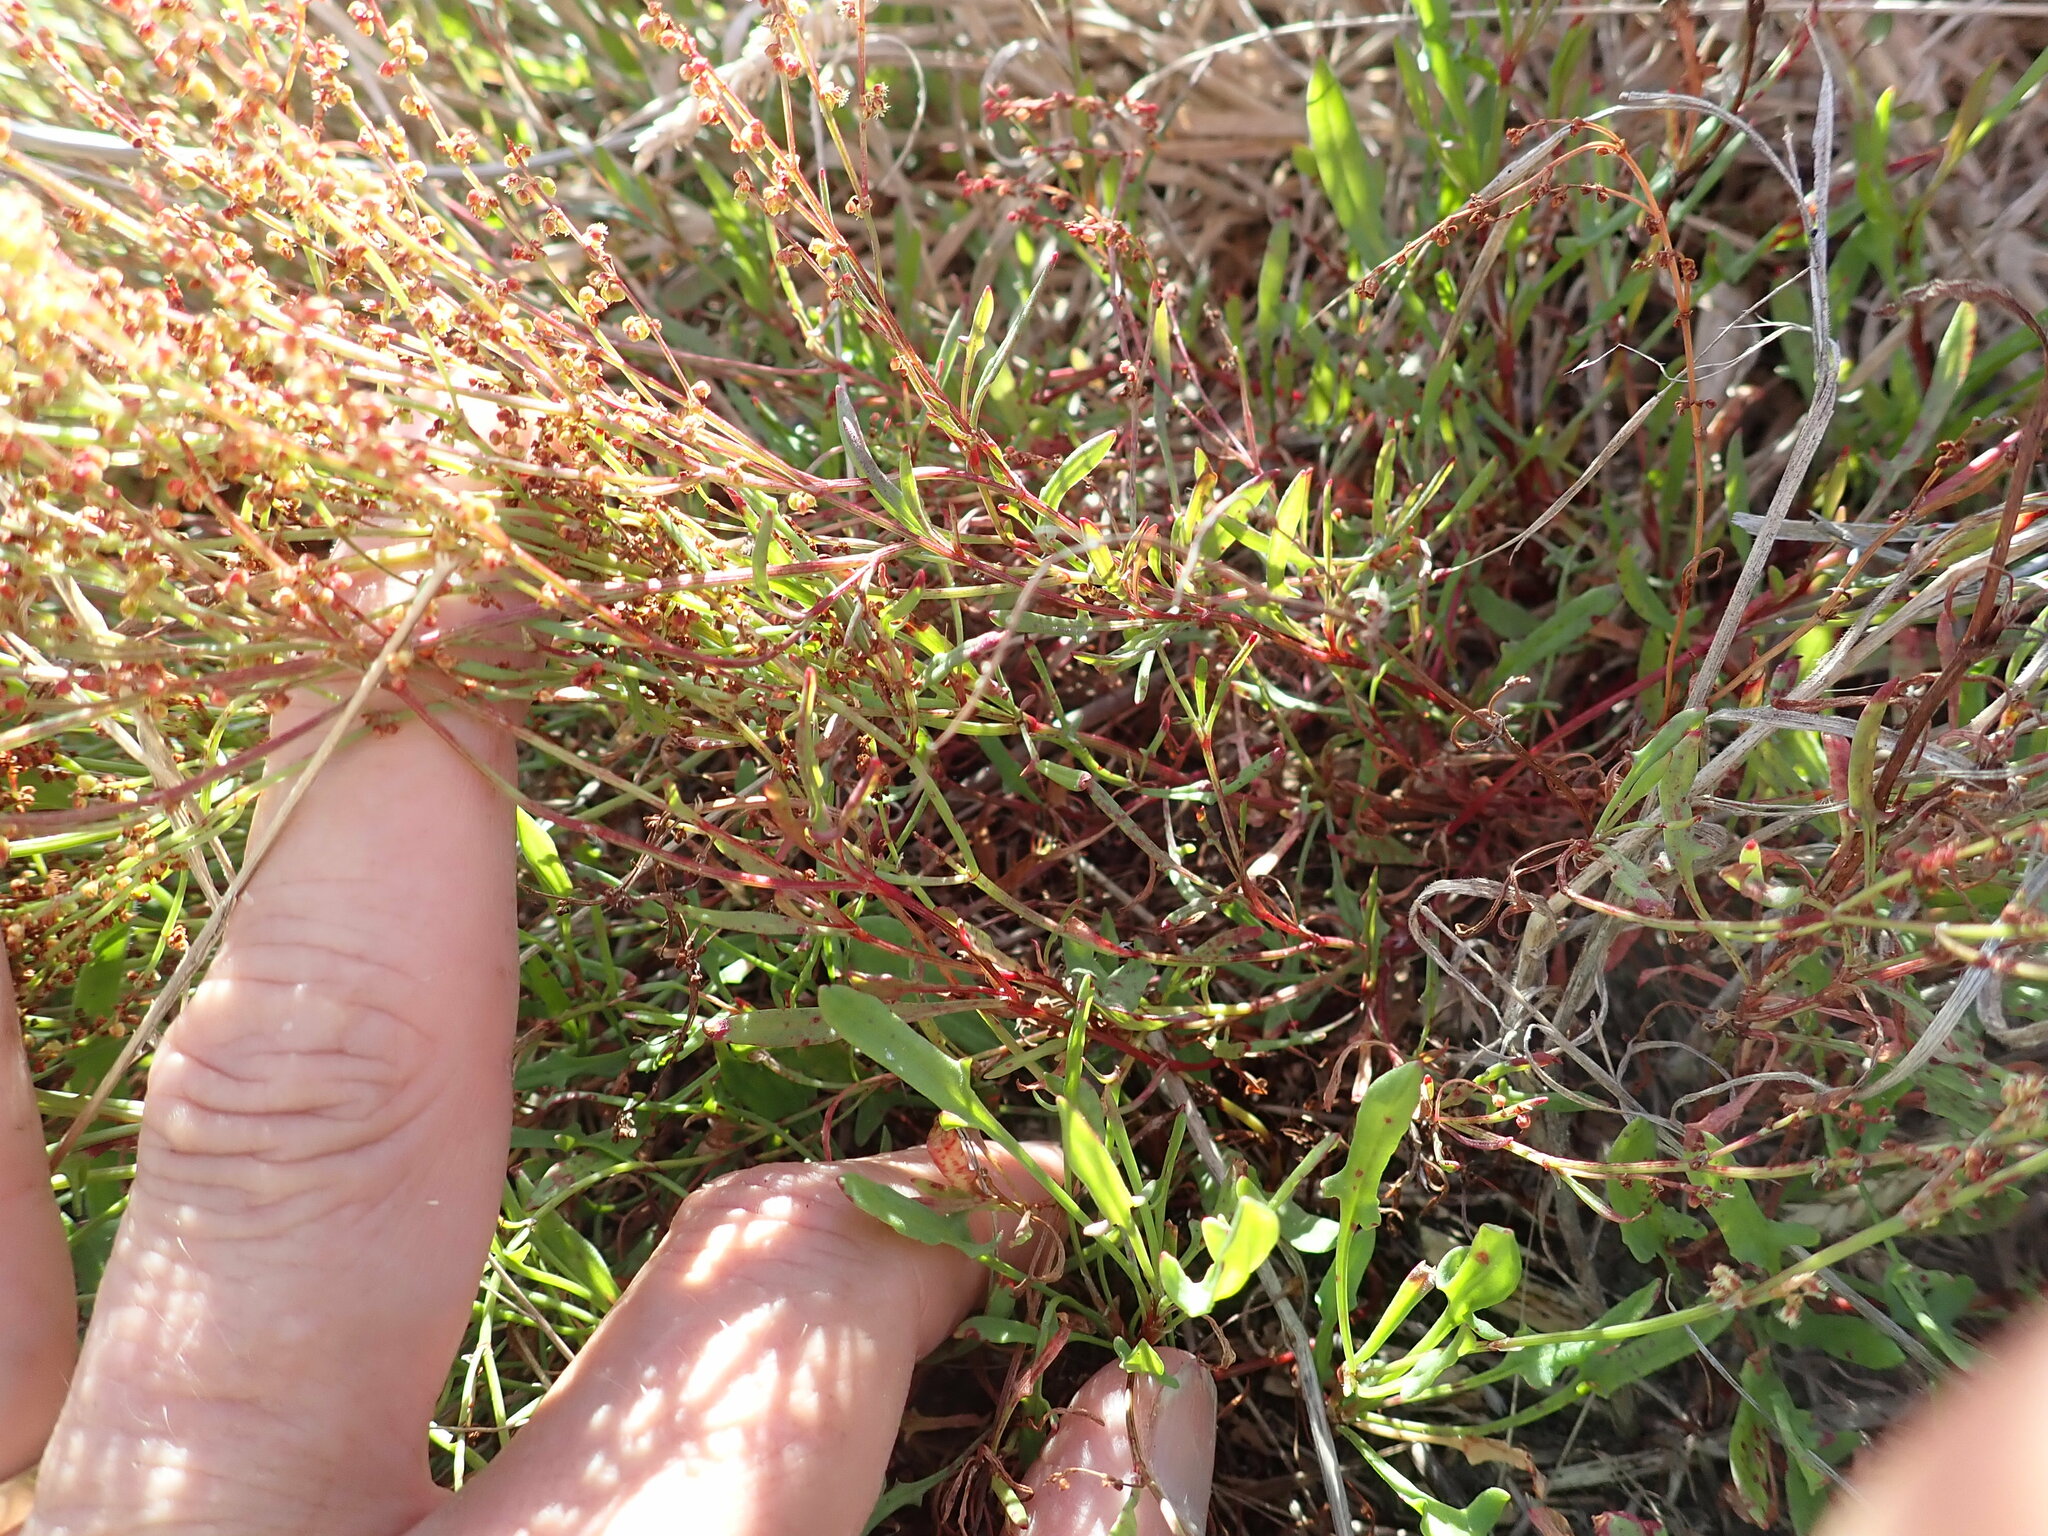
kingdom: Plantae
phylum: Tracheophyta
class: Magnoliopsida
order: Caryophyllales
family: Polygonaceae
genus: Rumex
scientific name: Rumex acetosella
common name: Common sheep sorrel
